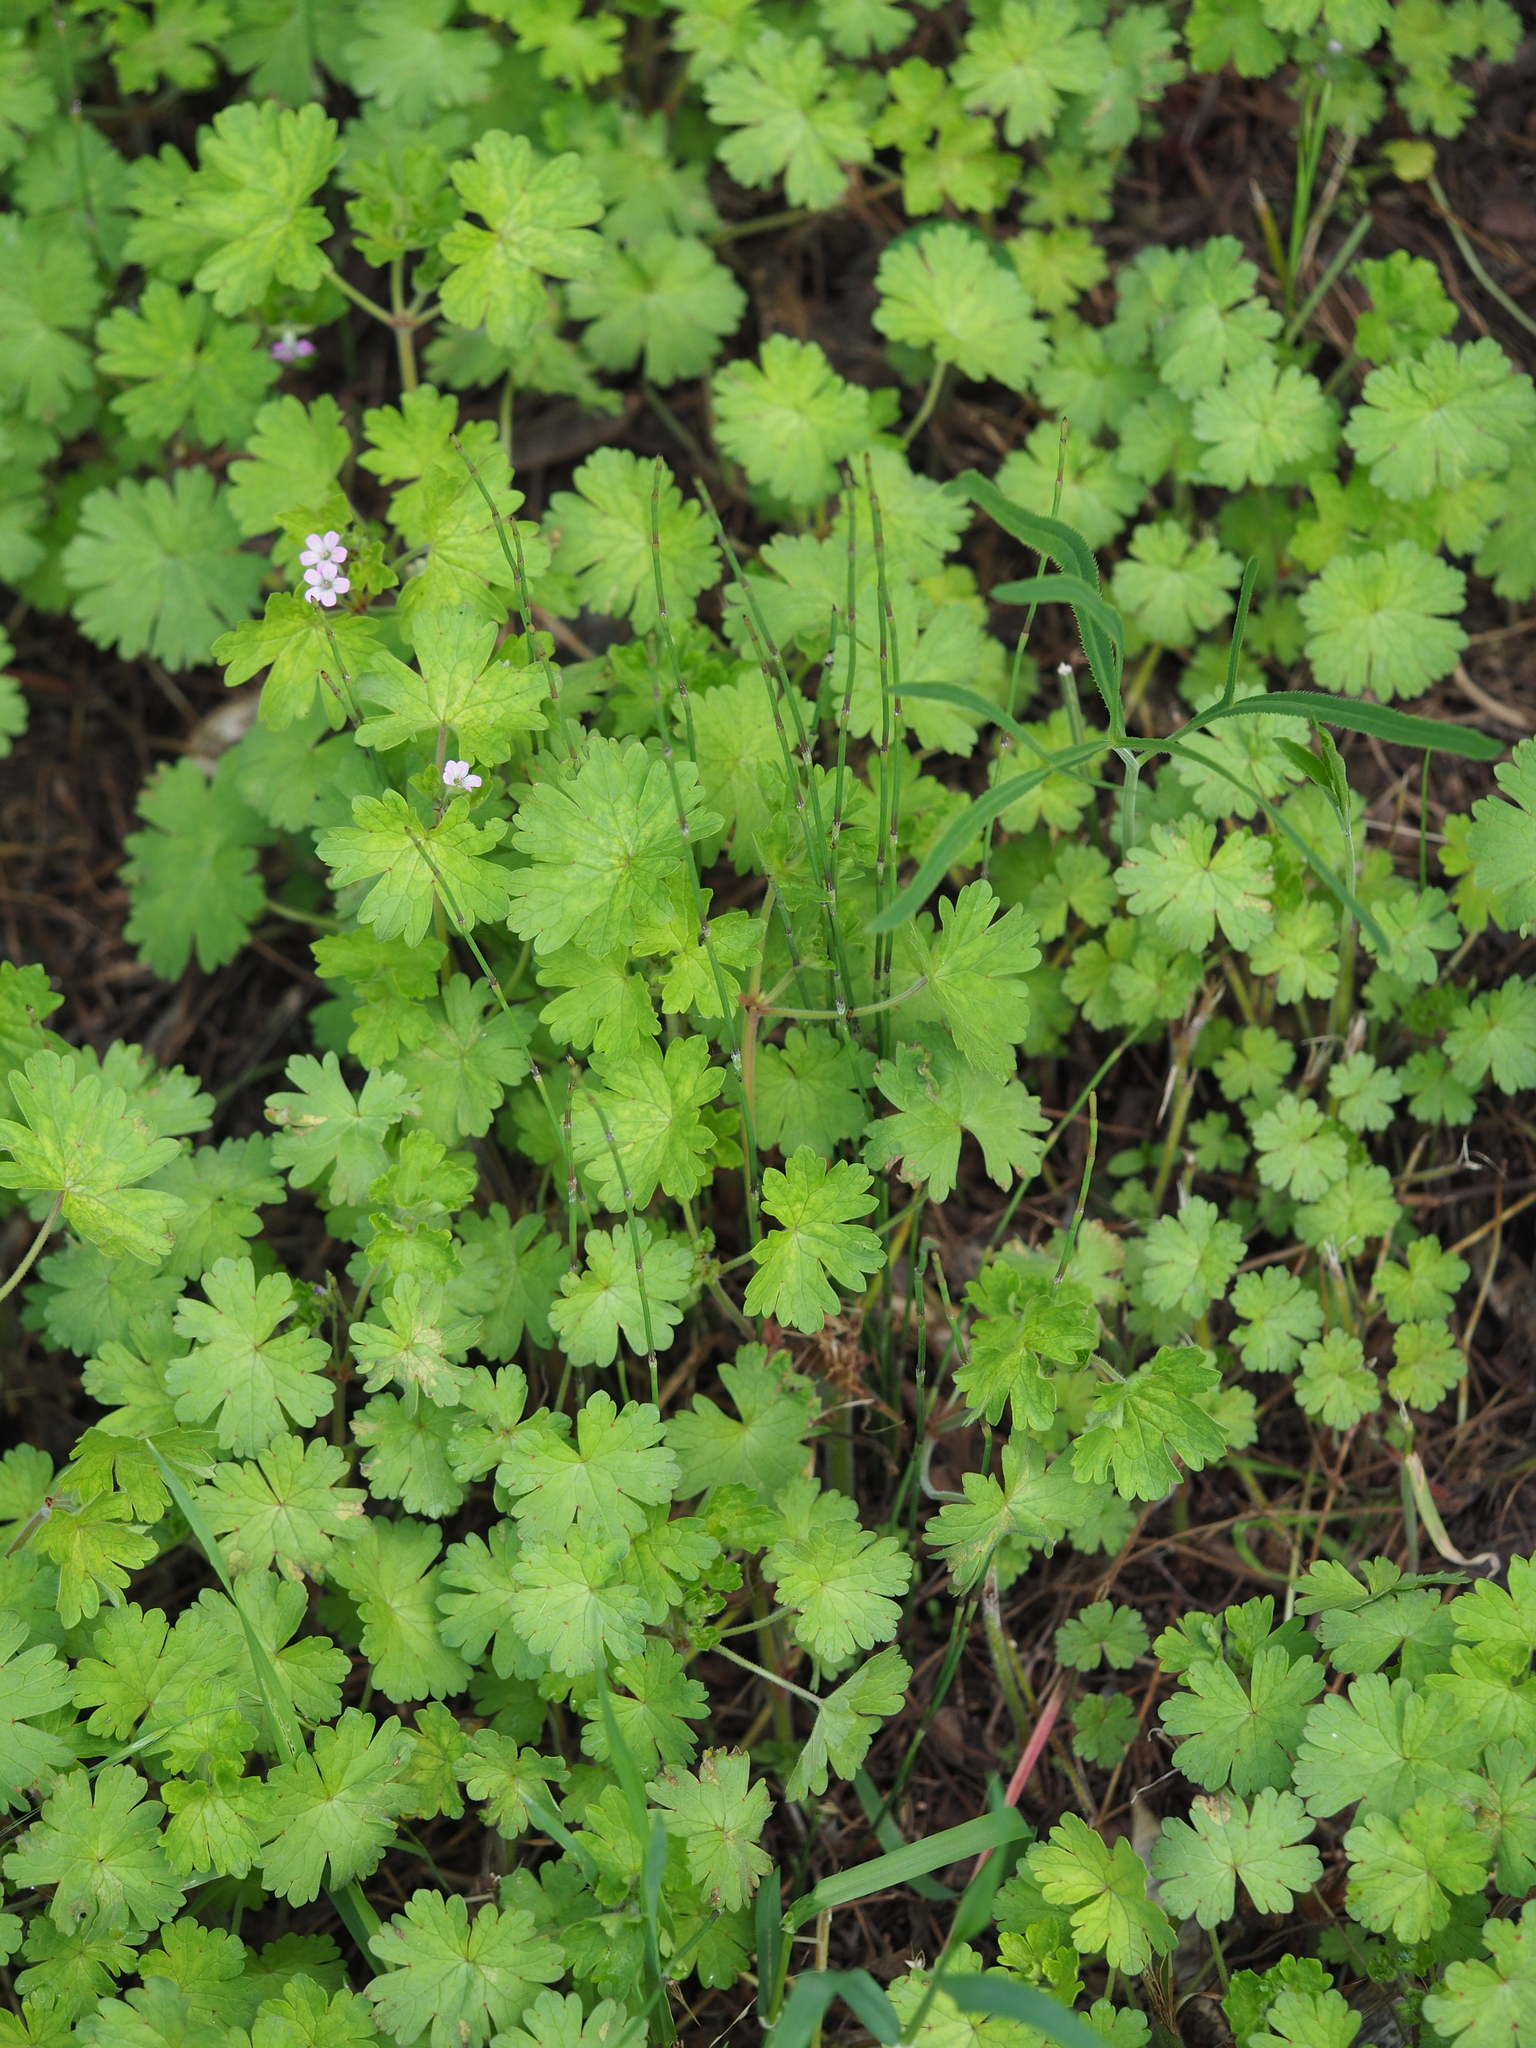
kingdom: Plantae
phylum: Tracheophyta
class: Polypodiopsida
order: Equisetales
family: Equisetaceae
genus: Equisetum
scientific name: Equisetum ramosissimum
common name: Branched horsetail
